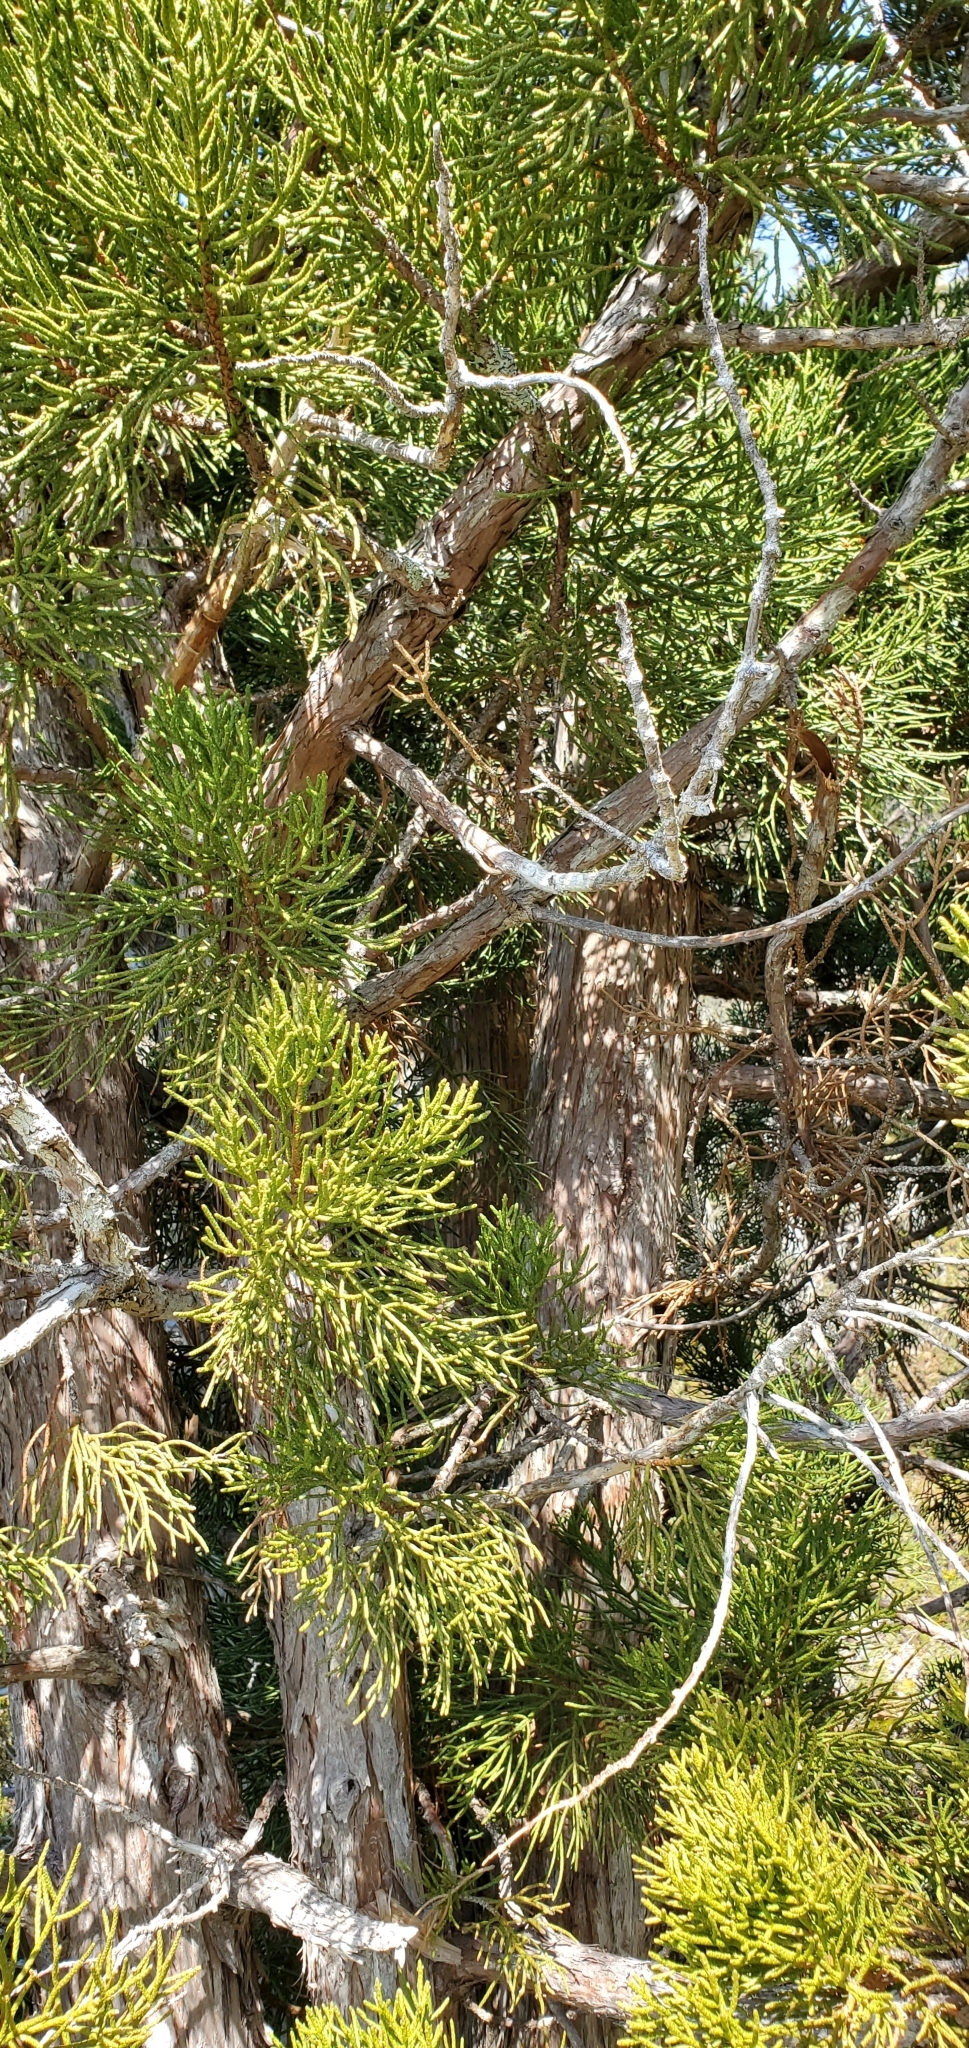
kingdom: Plantae
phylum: Tracheophyta
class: Pinopsida
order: Pinales
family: Cupressaceae
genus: Athrotaxis
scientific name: Athrotaxis cupressoides
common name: Tasmanian pencil pine
